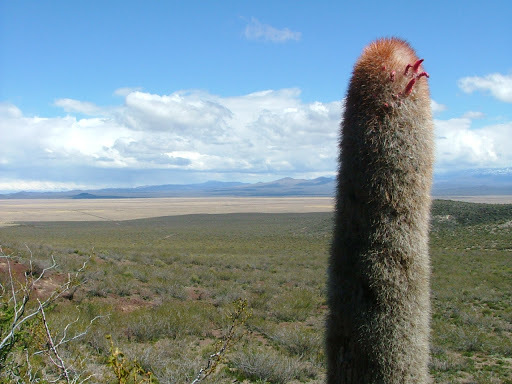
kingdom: Plantae
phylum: Tracheophyta
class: Magnoliopsida
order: Caryophyllales
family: Cactaceae
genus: Denmoza
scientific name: Denmoza rhodacantha
